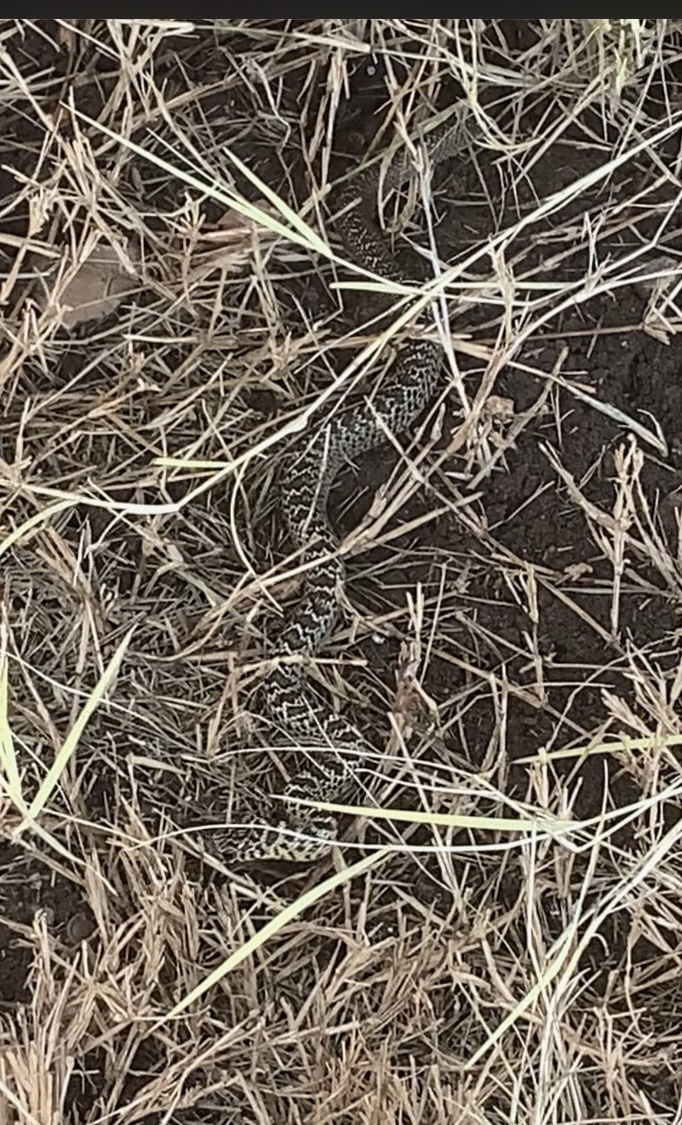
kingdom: Animalia
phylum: Chordata
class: Squamata
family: Colubridae
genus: Coluber
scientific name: Coluber constrictor
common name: Eastern racer
